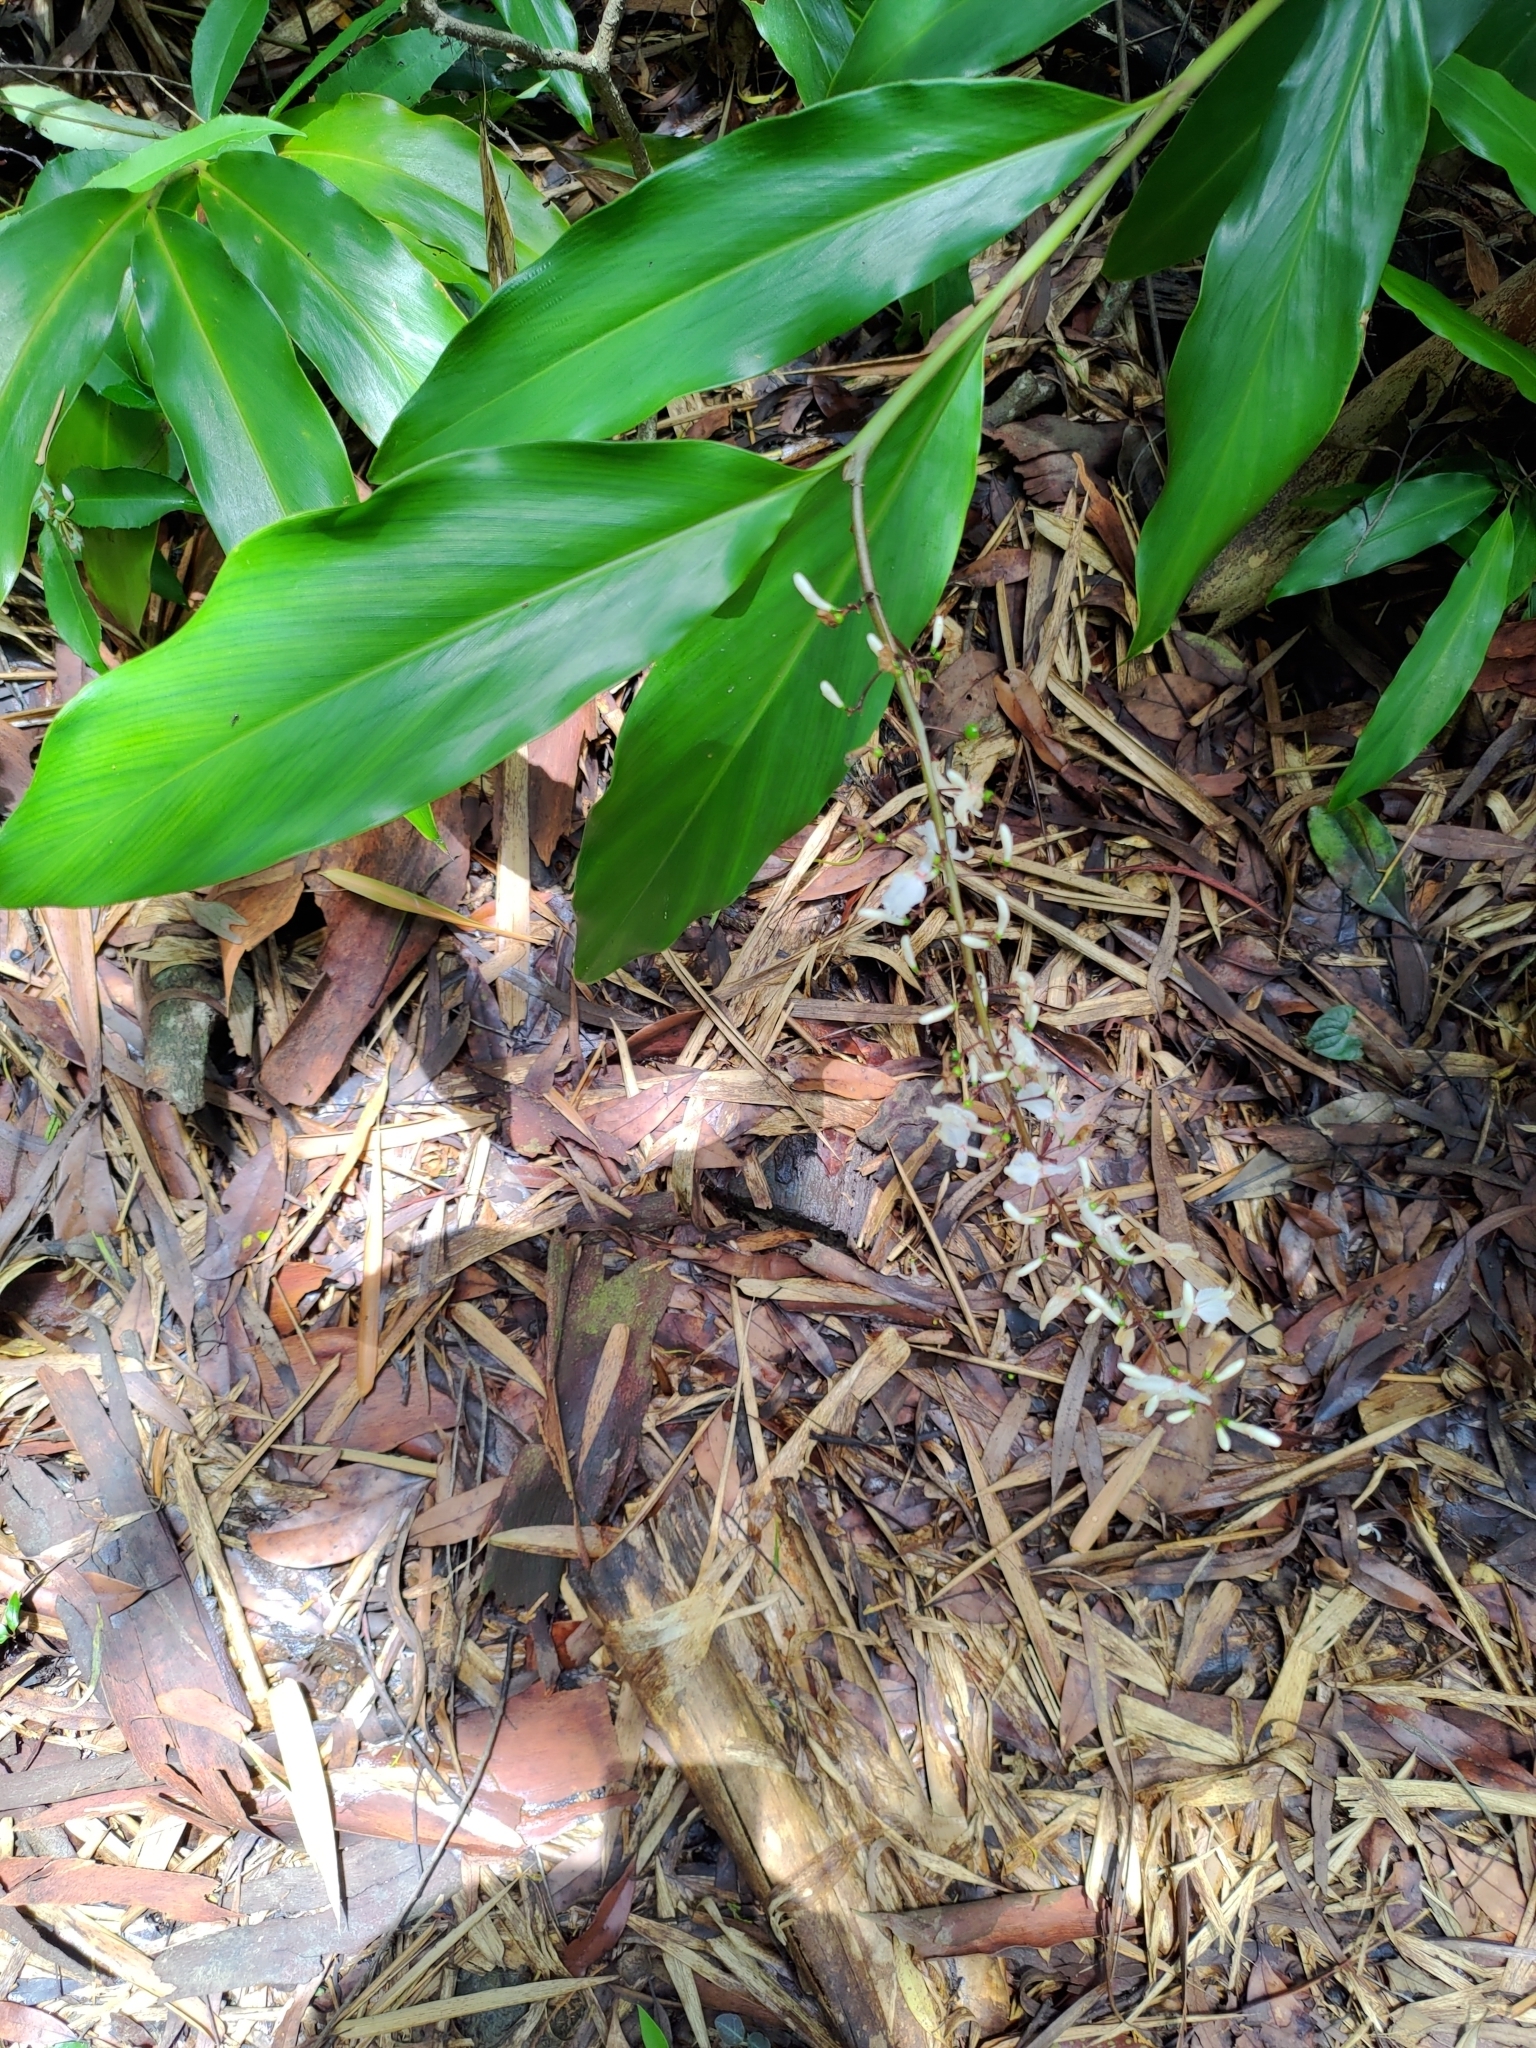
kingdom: Plantae
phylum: Tracheophyta
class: Liliopsida
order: Zingiberales
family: Zingiberaceae
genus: Alpinia
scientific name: Alpinia intermedia
